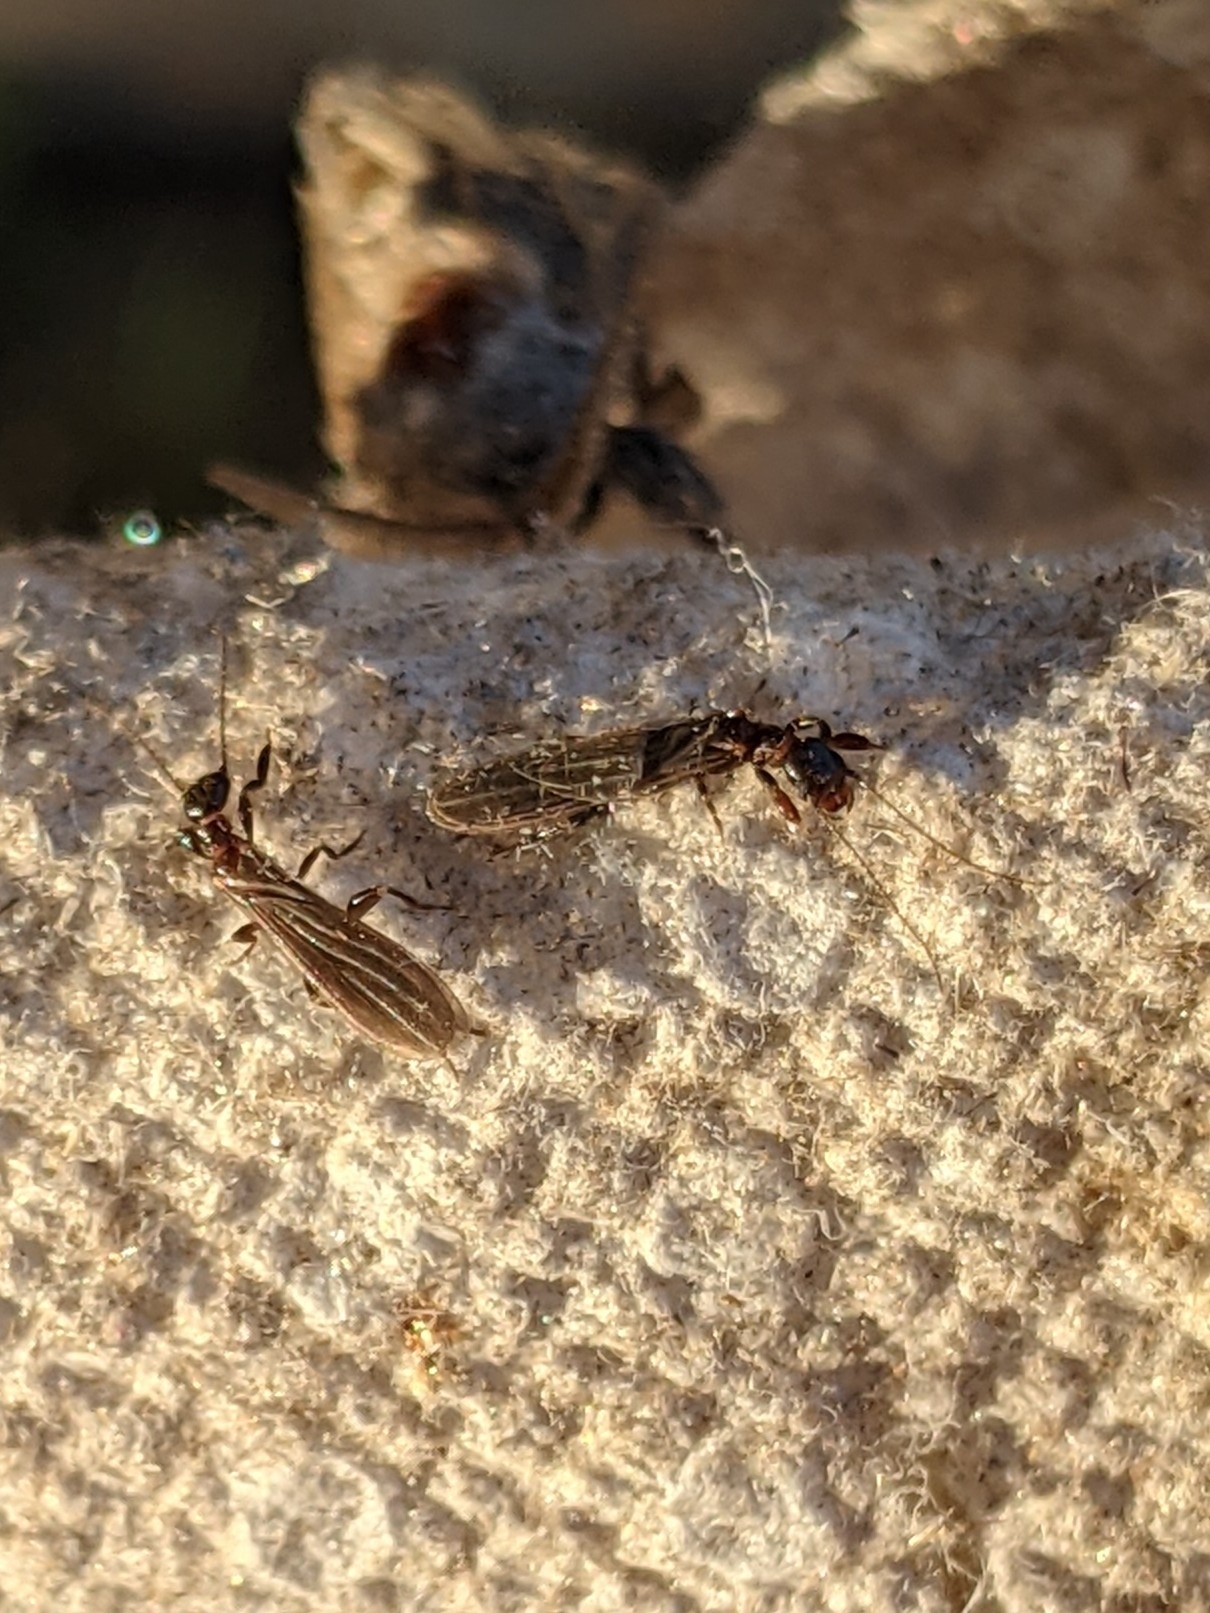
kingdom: Animalia
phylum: Arthropoda
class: Insecta
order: Embioptera
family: Oligotomidae
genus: Oligotoma
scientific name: Oligotoma nigra
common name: Black webspinner
